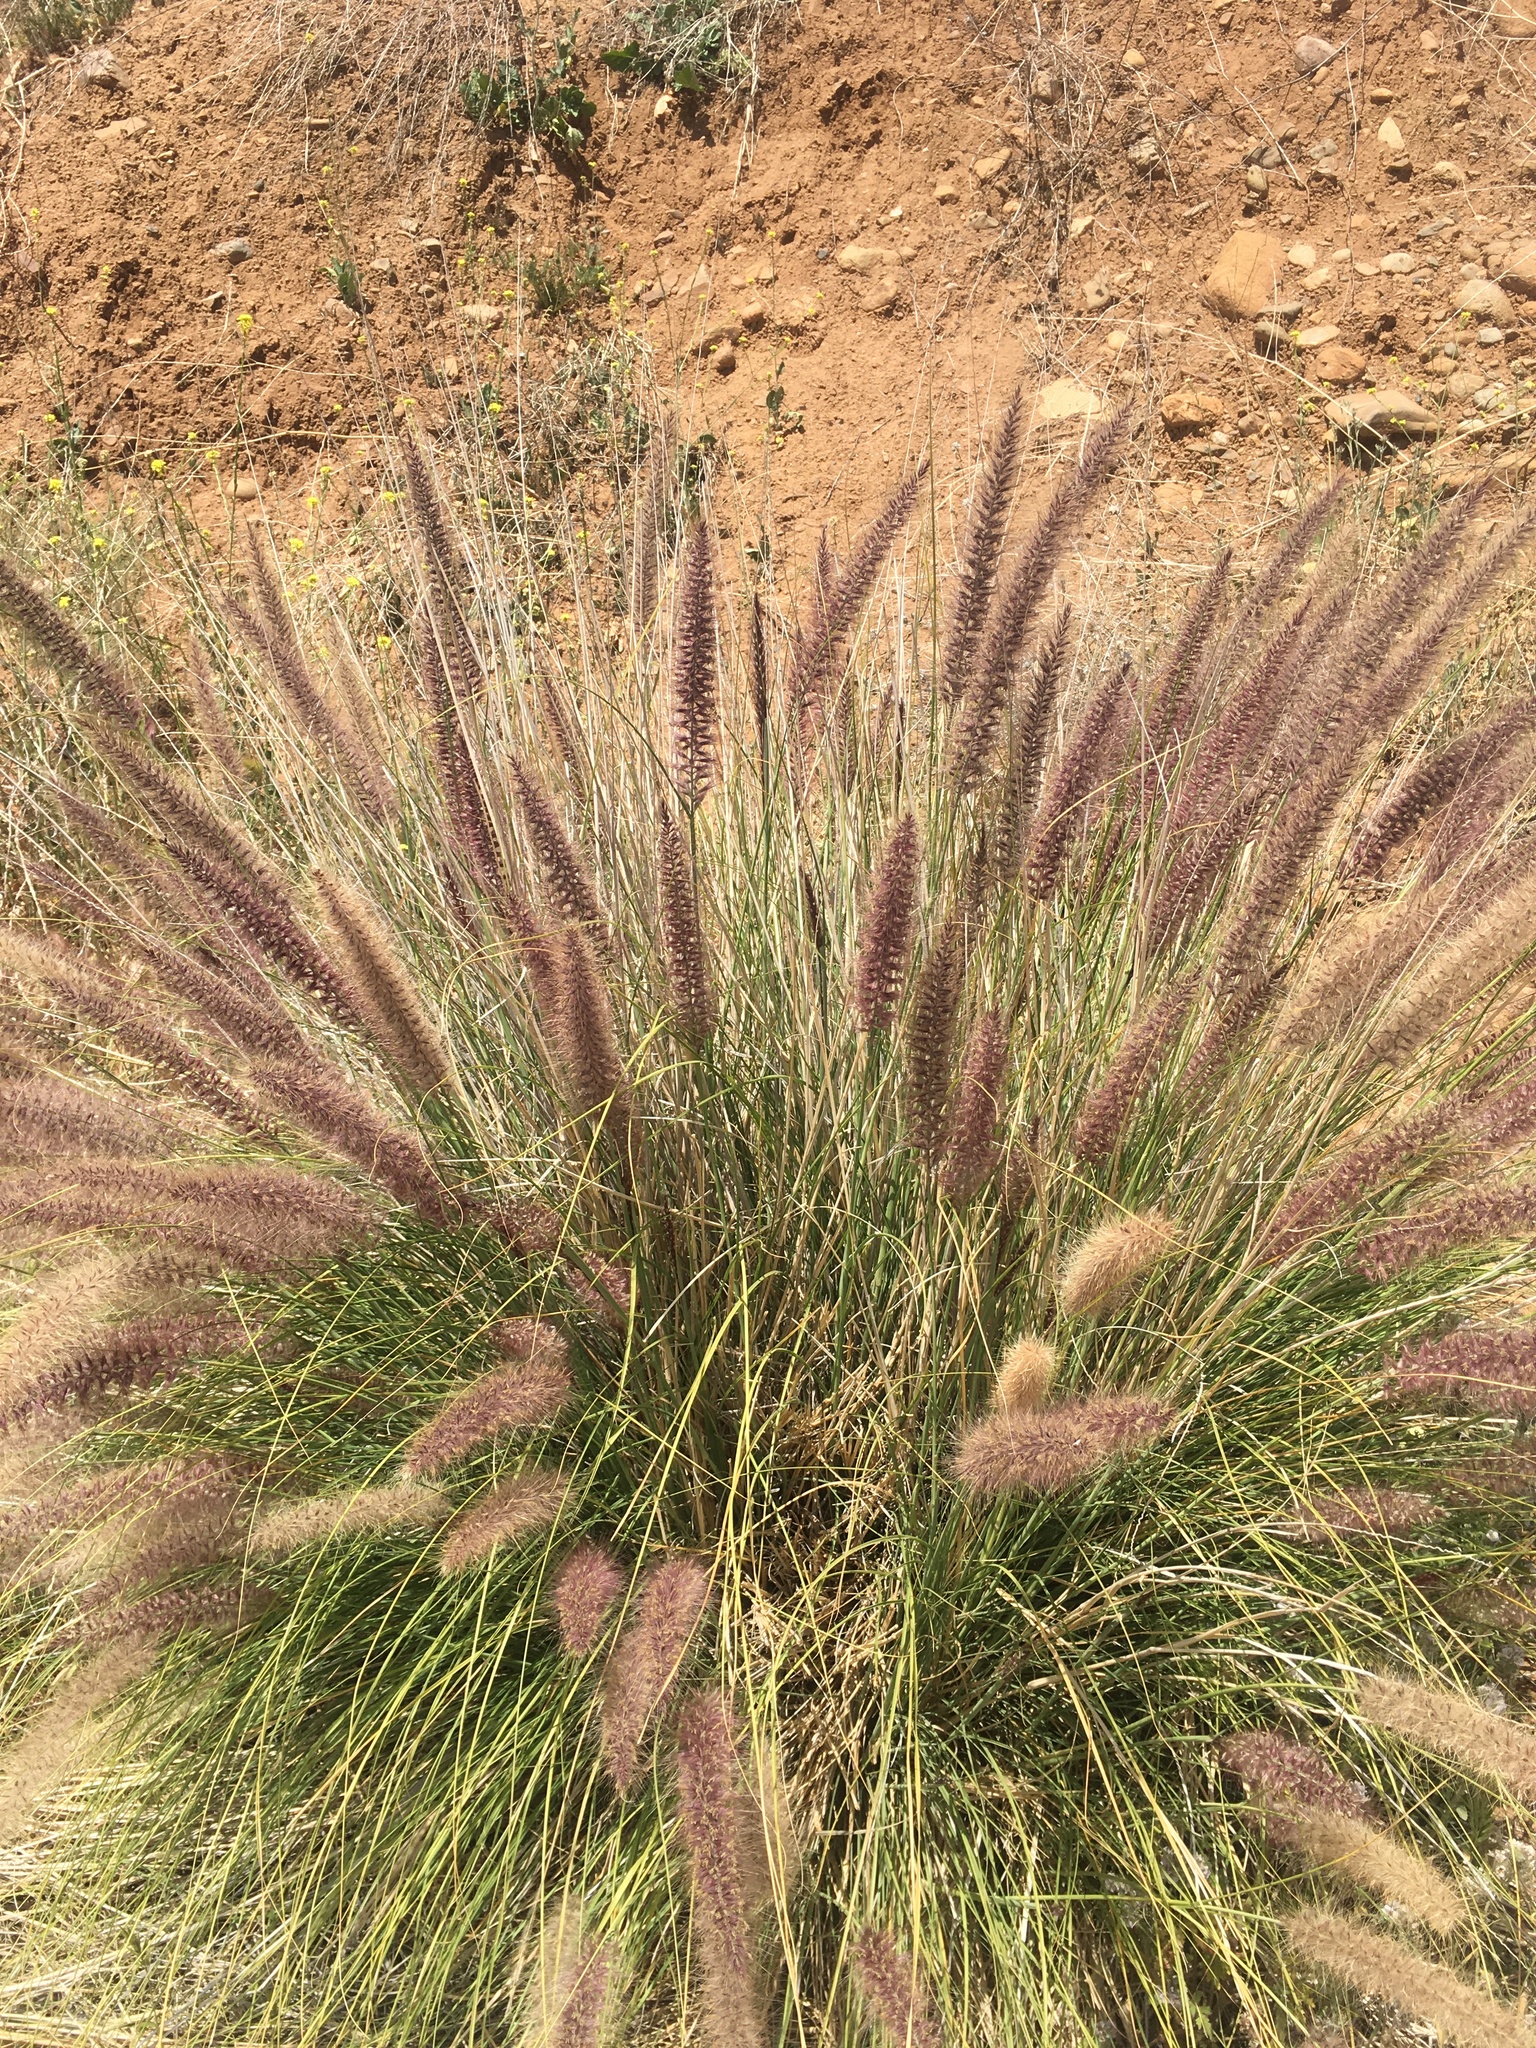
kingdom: Plantae
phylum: Tracheophyta
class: Liliopsida
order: Poales
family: Poaceae
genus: Cenchrus
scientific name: Cenchrus setaceus
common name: Crimson fountaingrass
